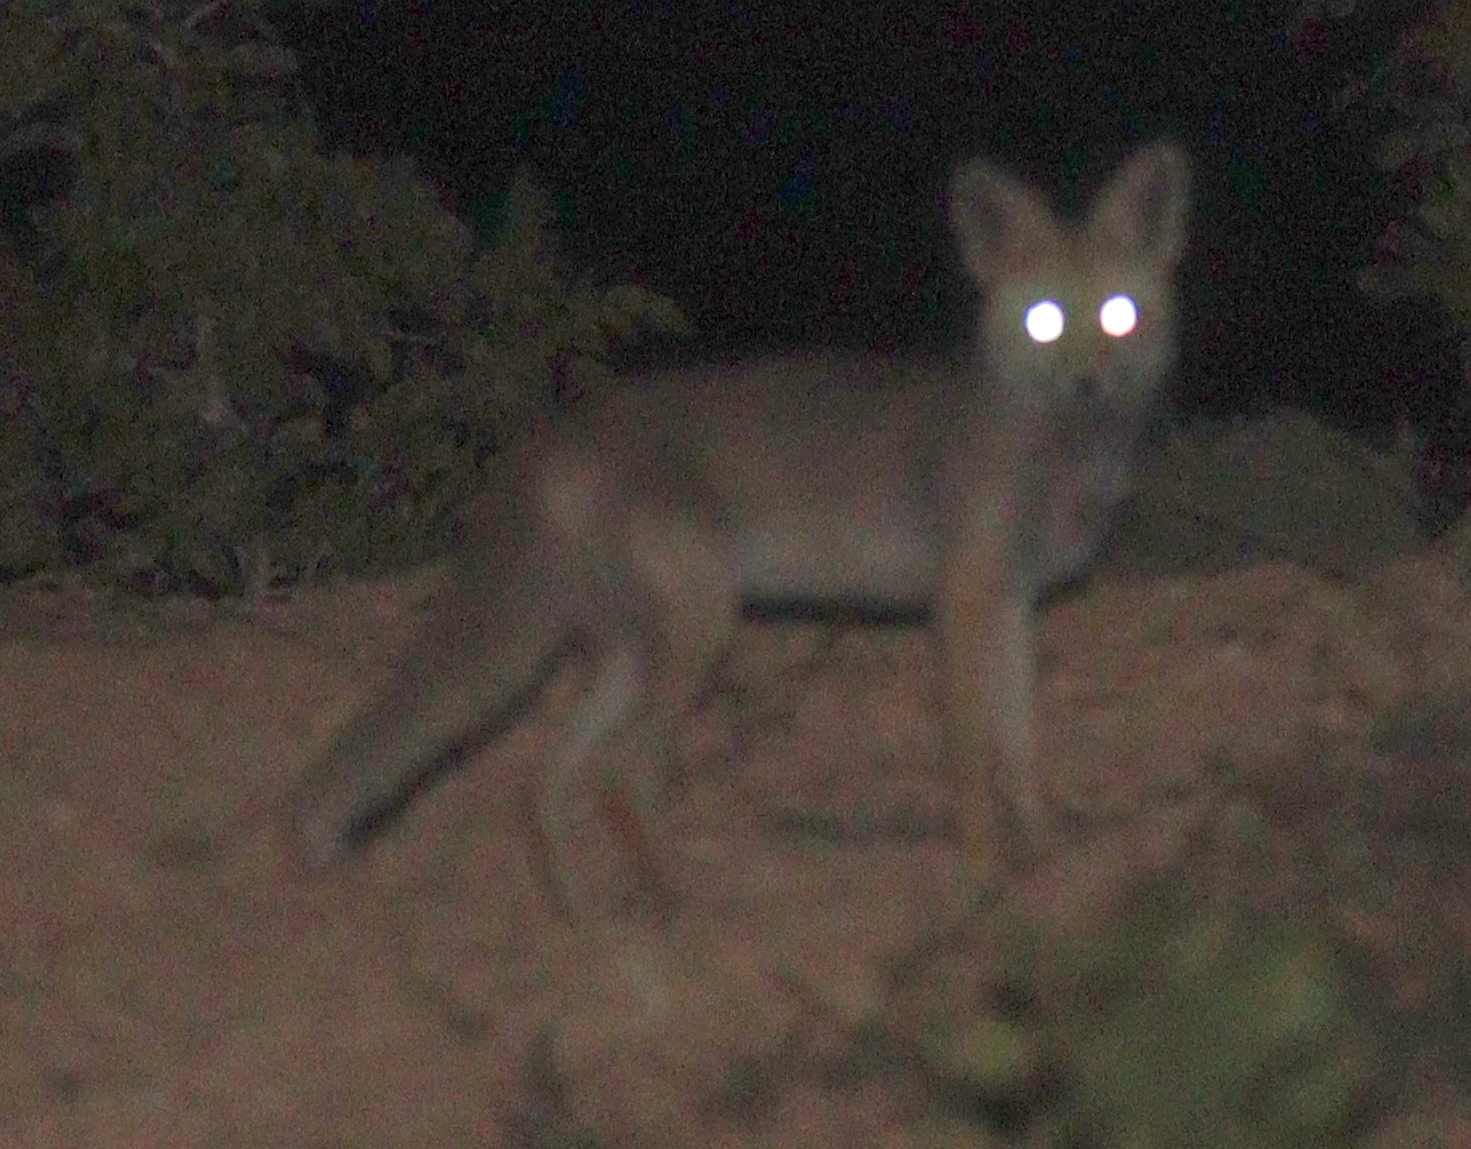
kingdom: Animalia
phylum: Chordata
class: Mammalia
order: Carnivora
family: Canidae
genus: Vulpes
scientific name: Vulpes vulpes
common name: Red fox
